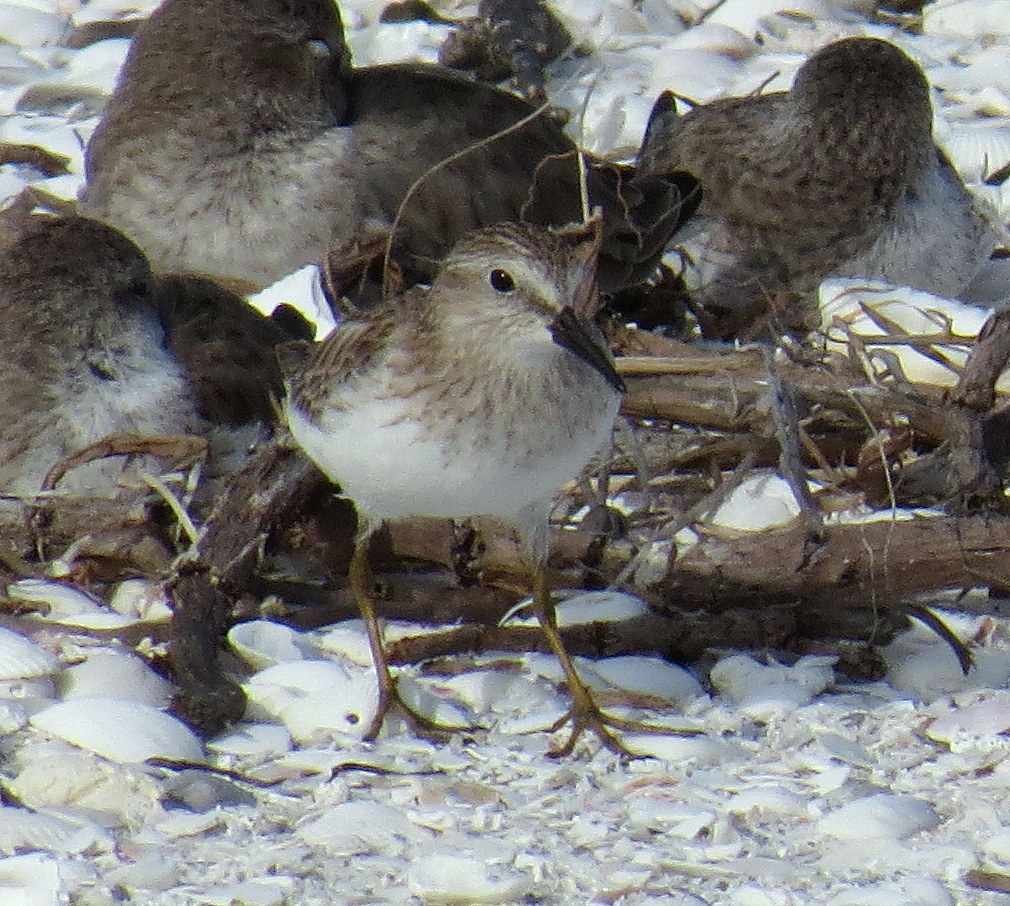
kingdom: Animalia
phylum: Chordata
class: Aves
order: Charadriiformes
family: Scolopacidae
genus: Calidris
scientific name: Calidris minutilla
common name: Least sandpiper
